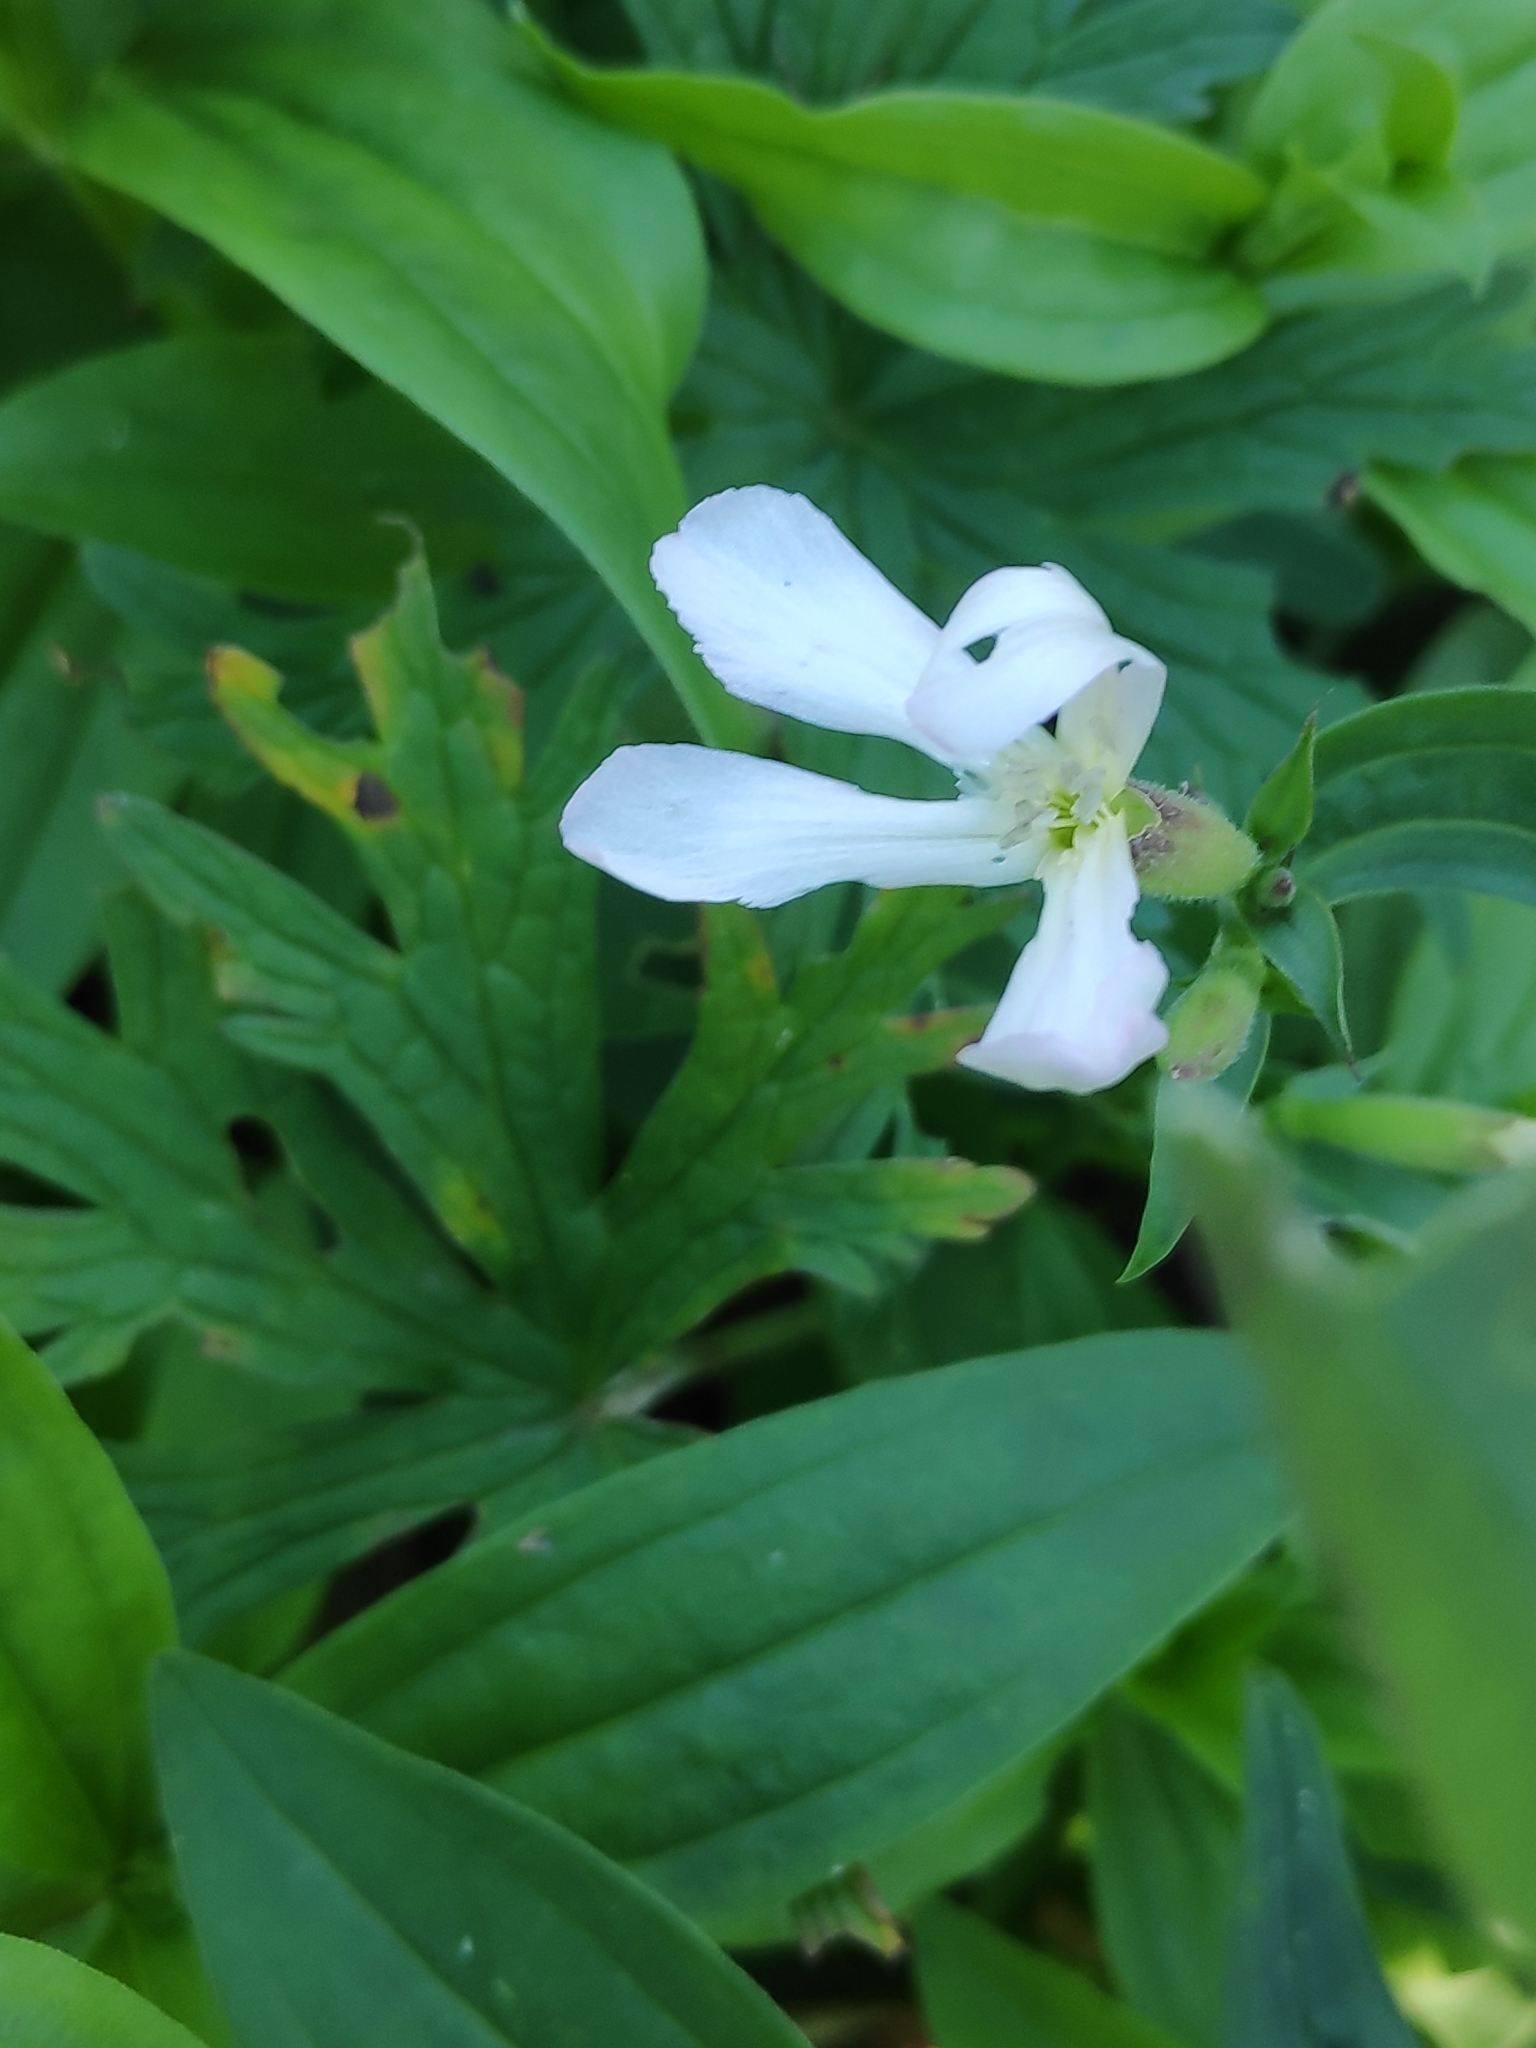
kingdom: Plantae
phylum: Tracheophyta
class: Magnoliopsida
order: Caryophyllales
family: Caryophyllaceae
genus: Saponaria
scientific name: Saponaria officinalis
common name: Soapwort
